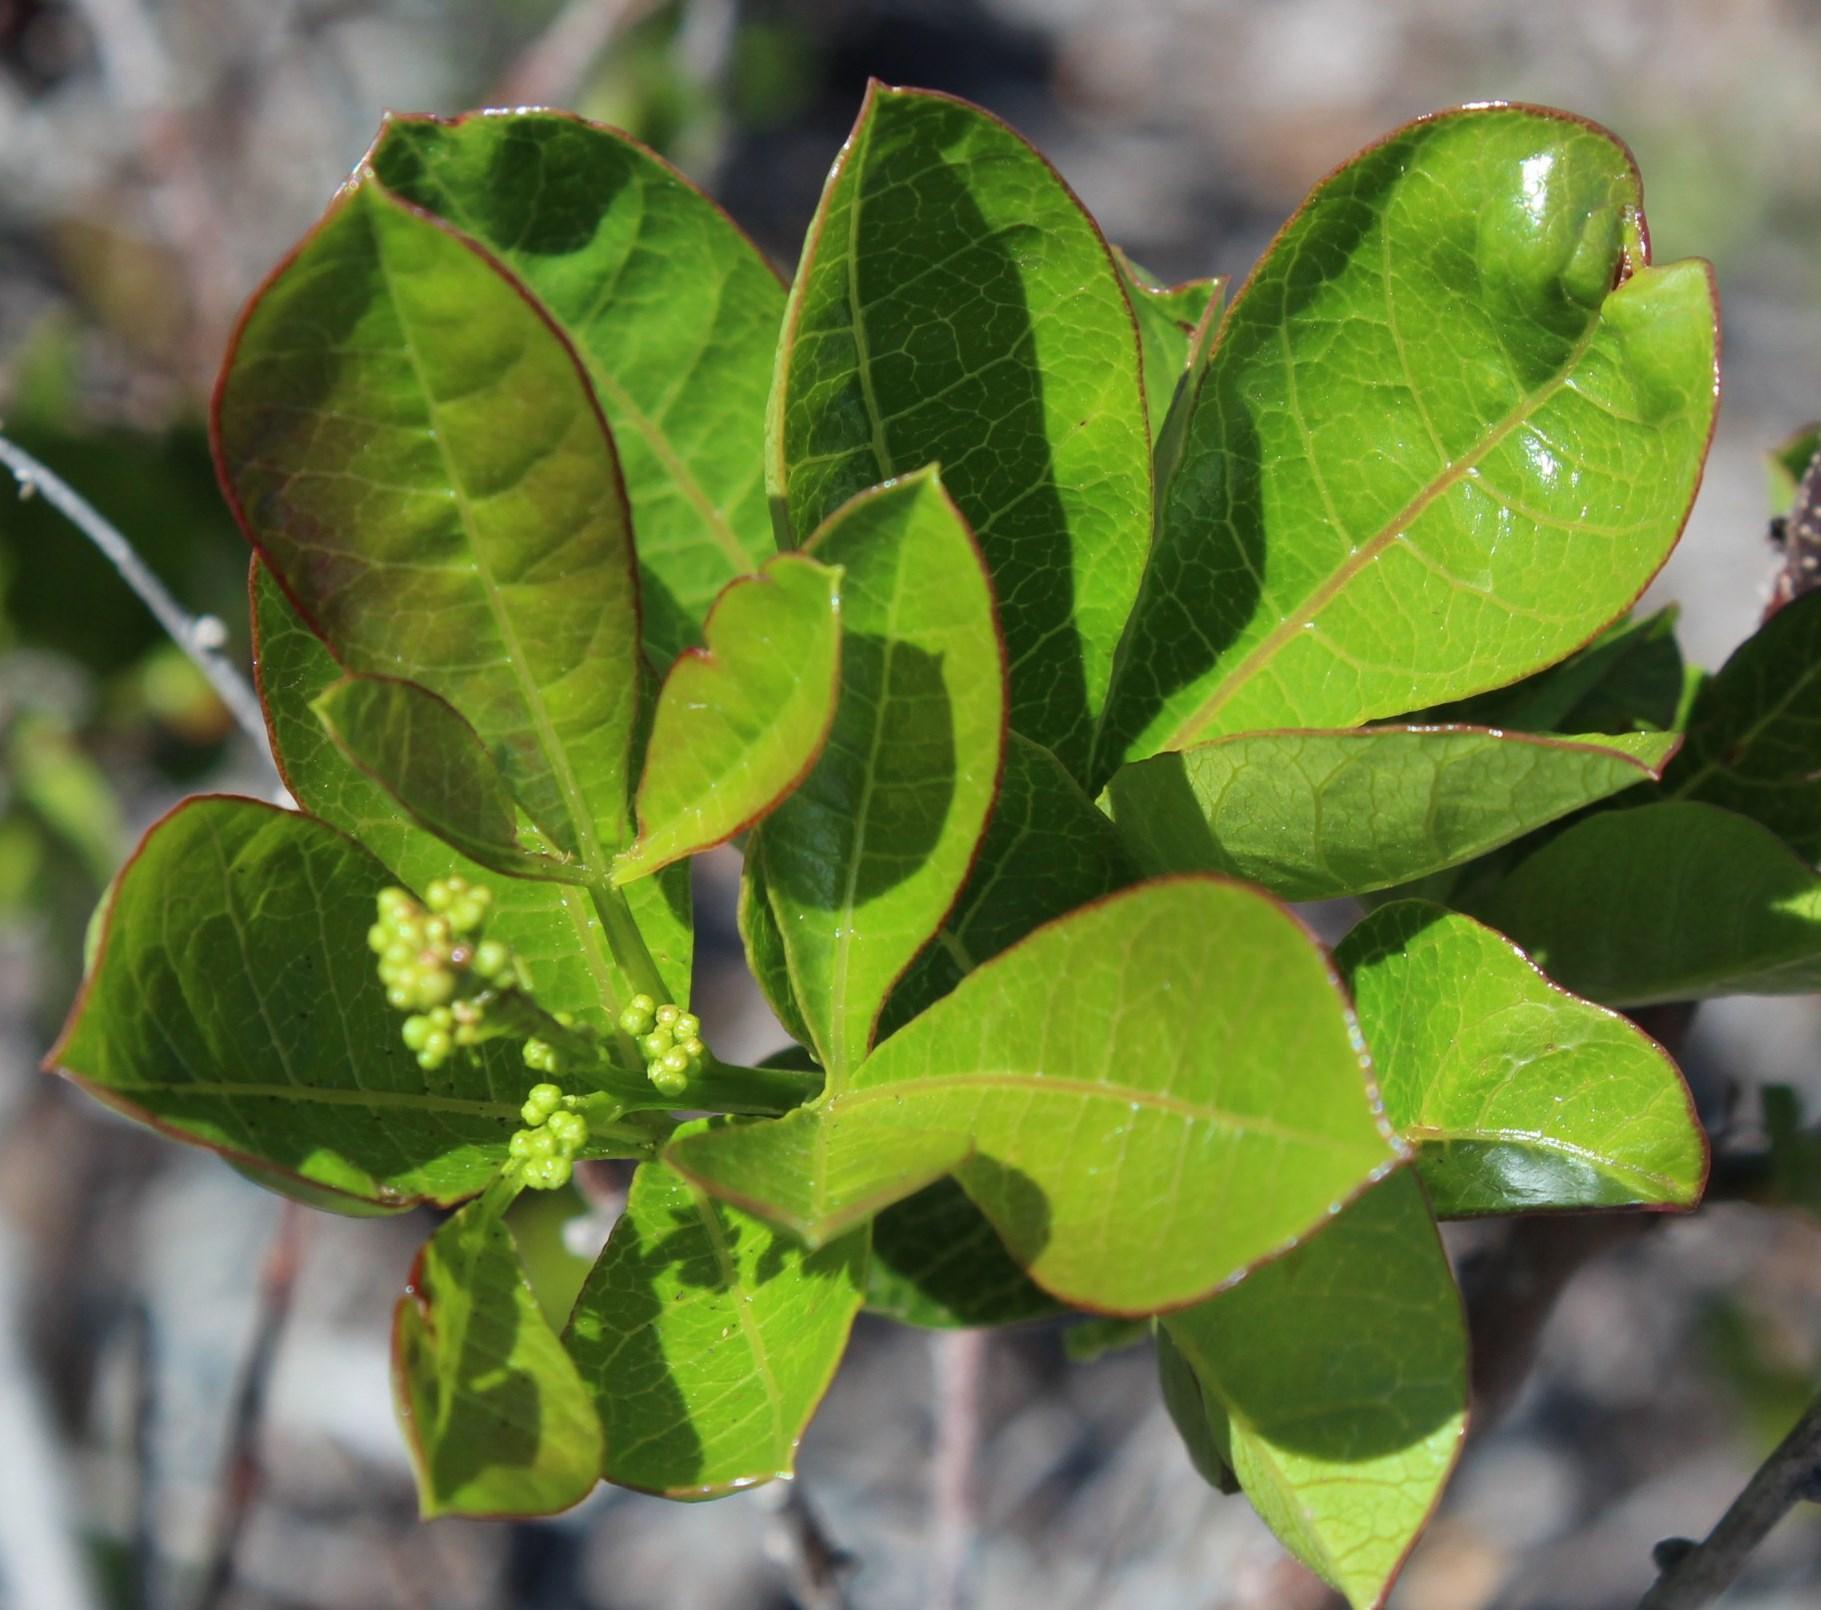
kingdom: Plantae
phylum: Tracheophyta
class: Magnoliopsida
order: Sapindales
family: Anacardiaceae
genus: Searsia
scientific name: Searsia laevigata
